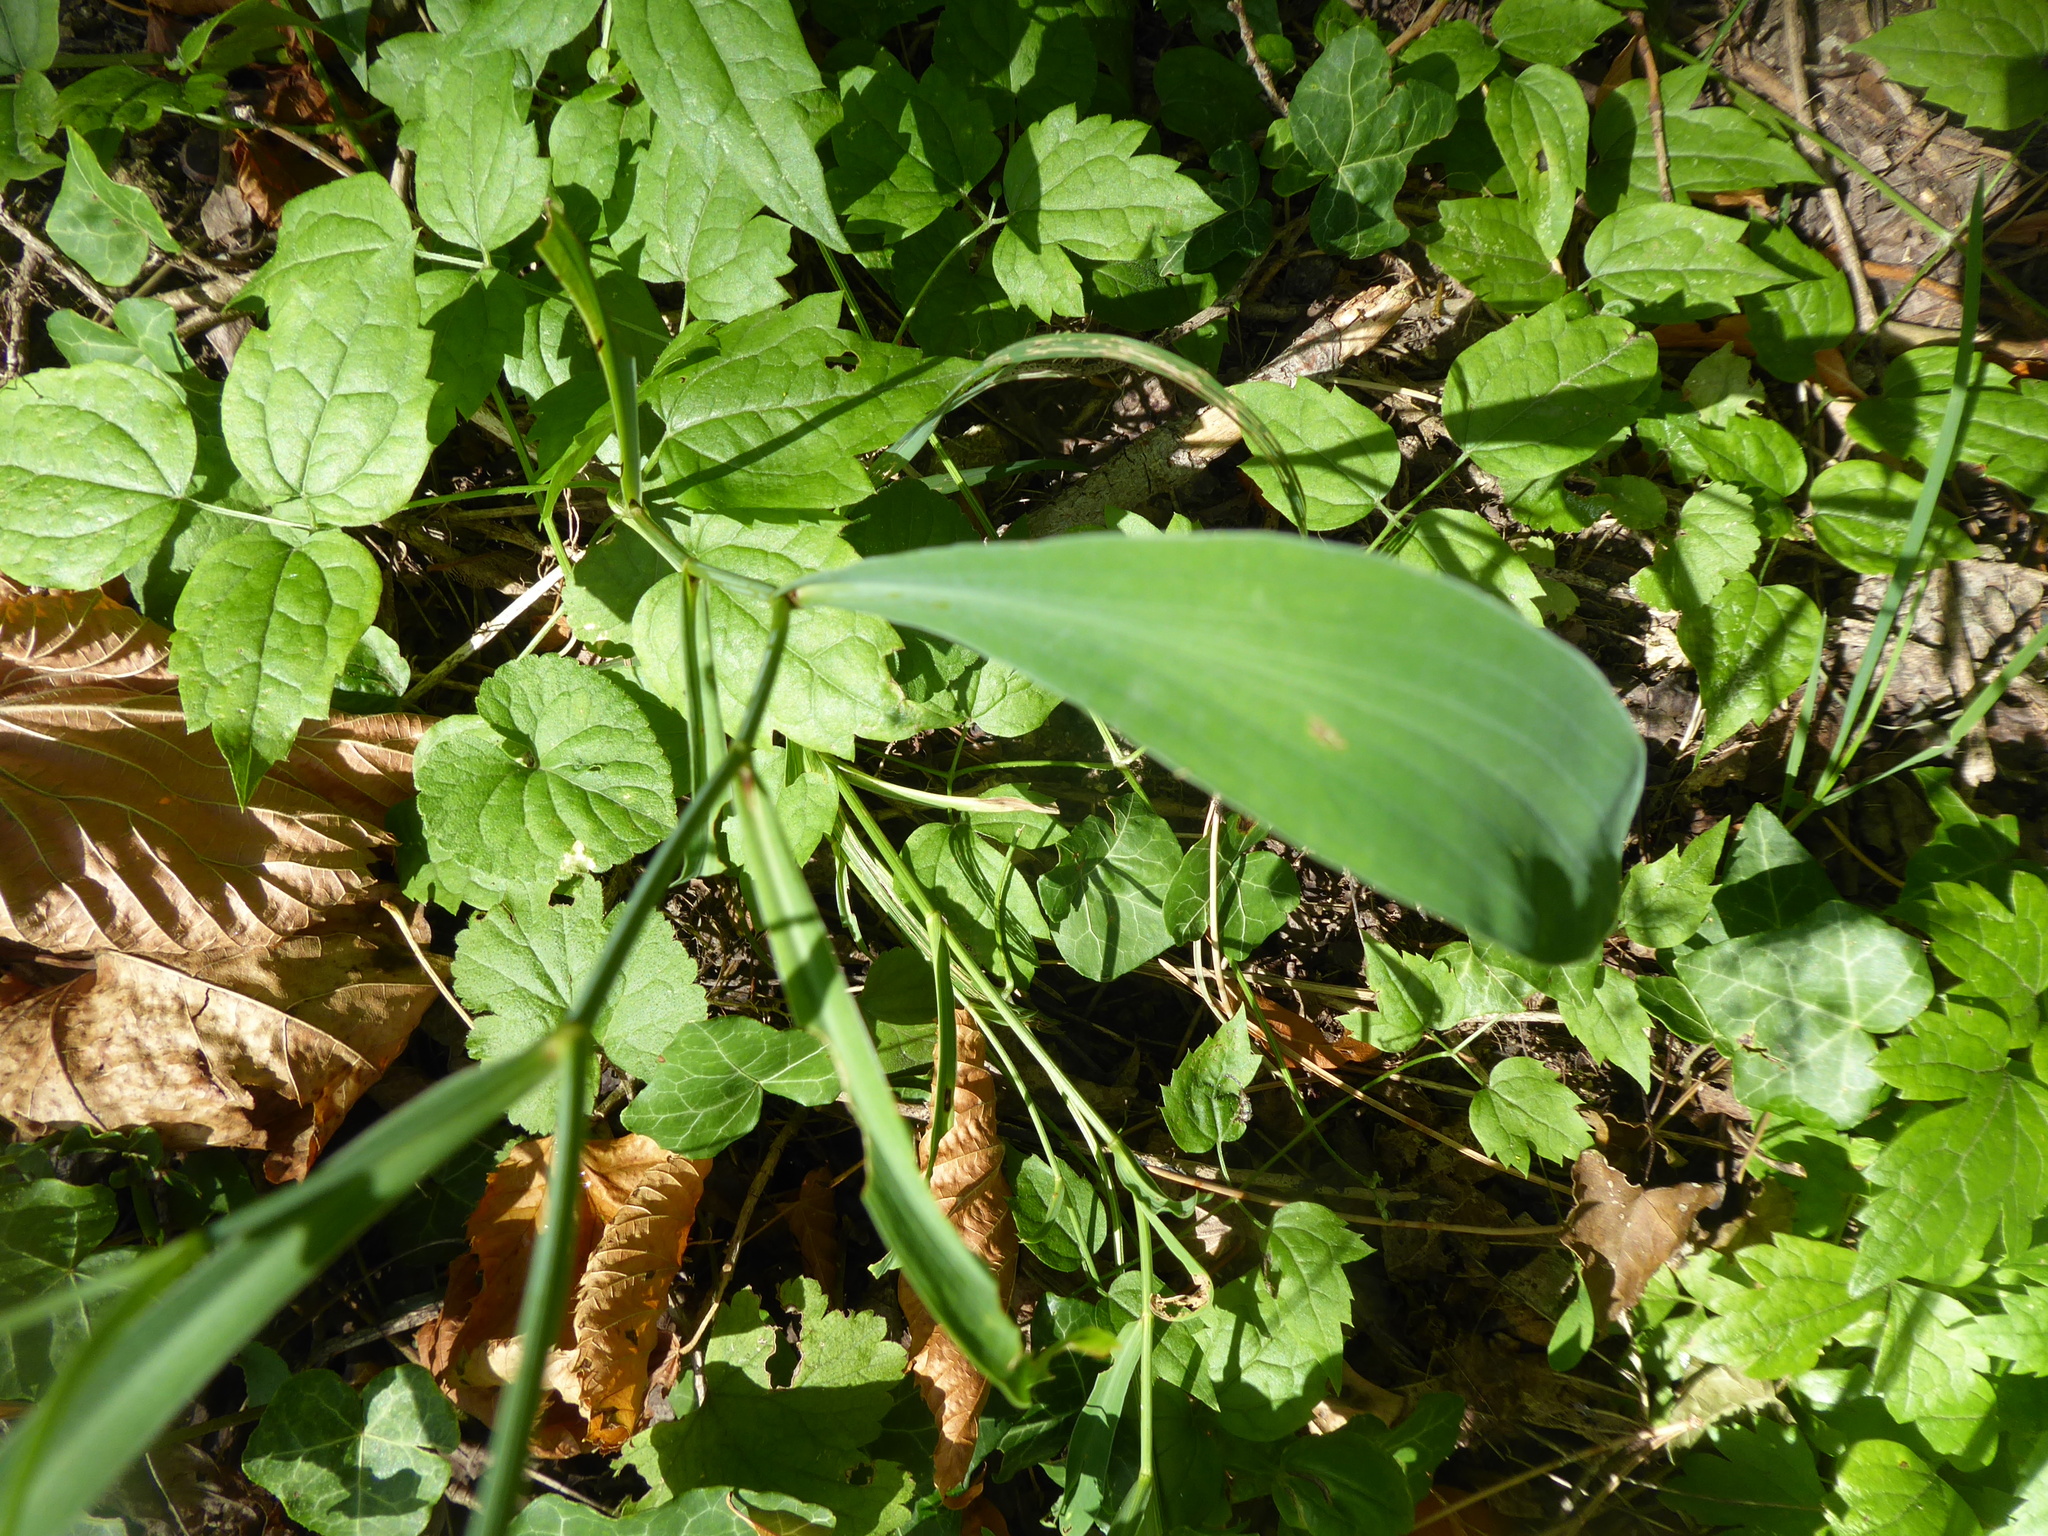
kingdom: Plantae
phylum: Tracheophyta
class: Magnoliopsida
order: Apiales
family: Apiaceae
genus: Bupleurum
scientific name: Bupleurum falcatum
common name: Sickle-leaved hare's-ear
